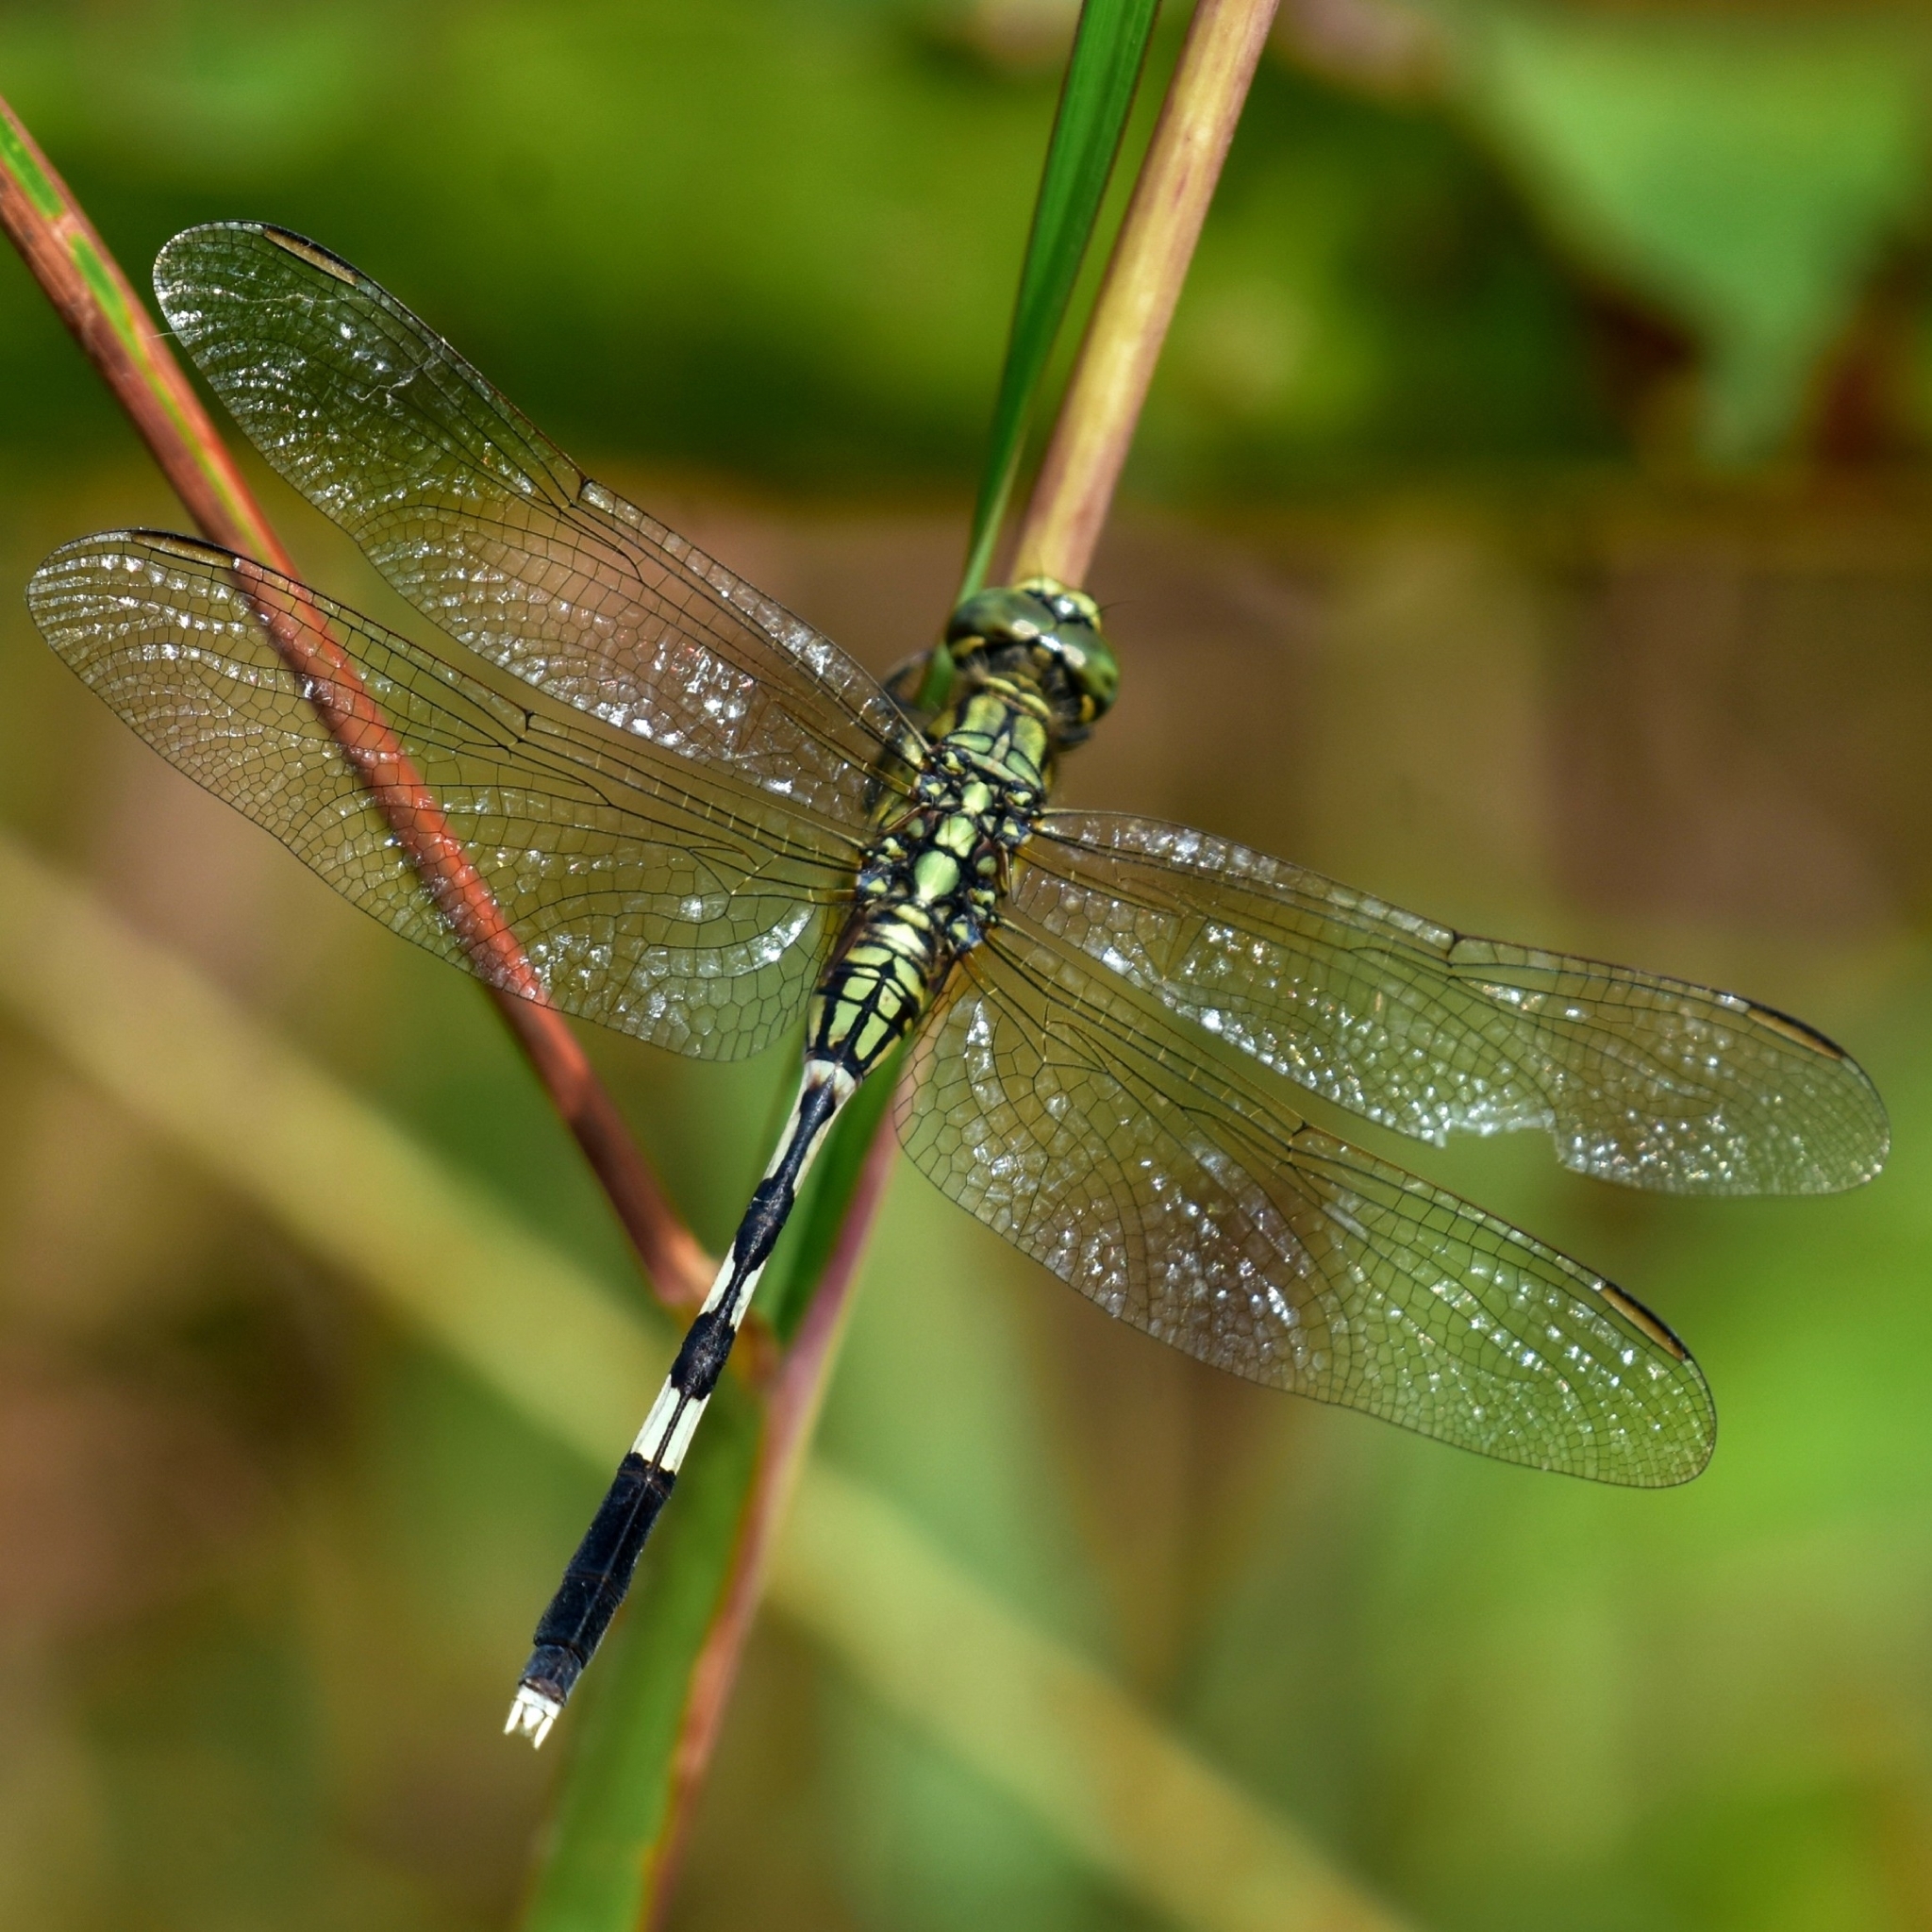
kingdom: Animalia
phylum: Arthropoda
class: Insecta
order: Odonata
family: Libellulidae
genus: Orthetrum
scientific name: Orthetrum sabina
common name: Slender skimmer
